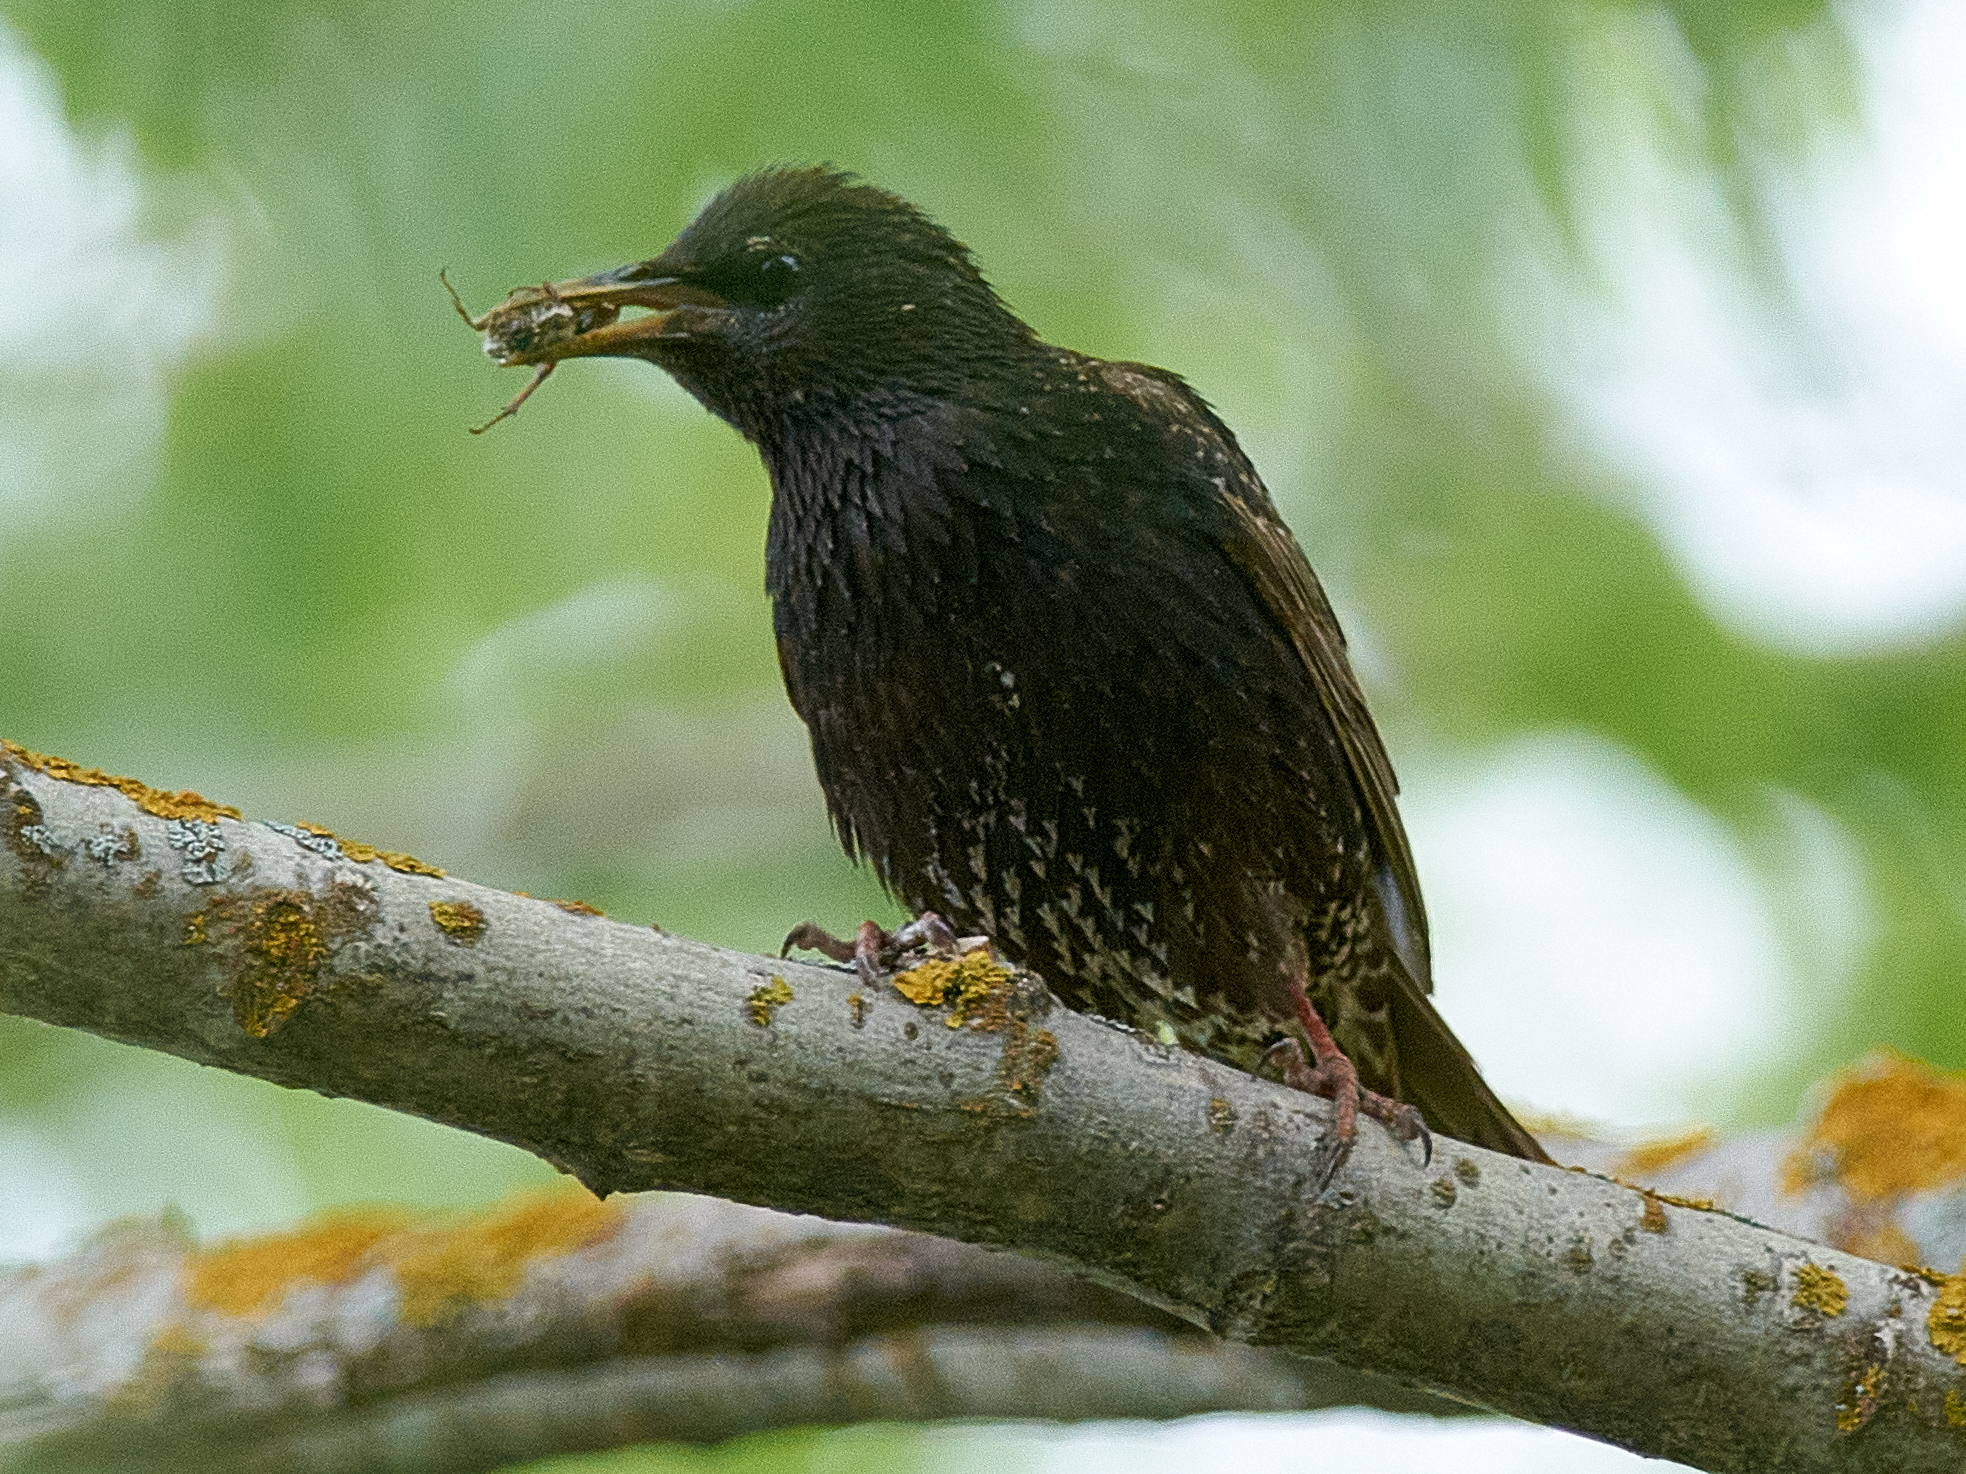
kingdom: Animalia
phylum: Chordata
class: Aves
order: Passeriformes
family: Sturnidae
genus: Sturnus
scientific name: Sturnus vulgaris
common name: Common starling
